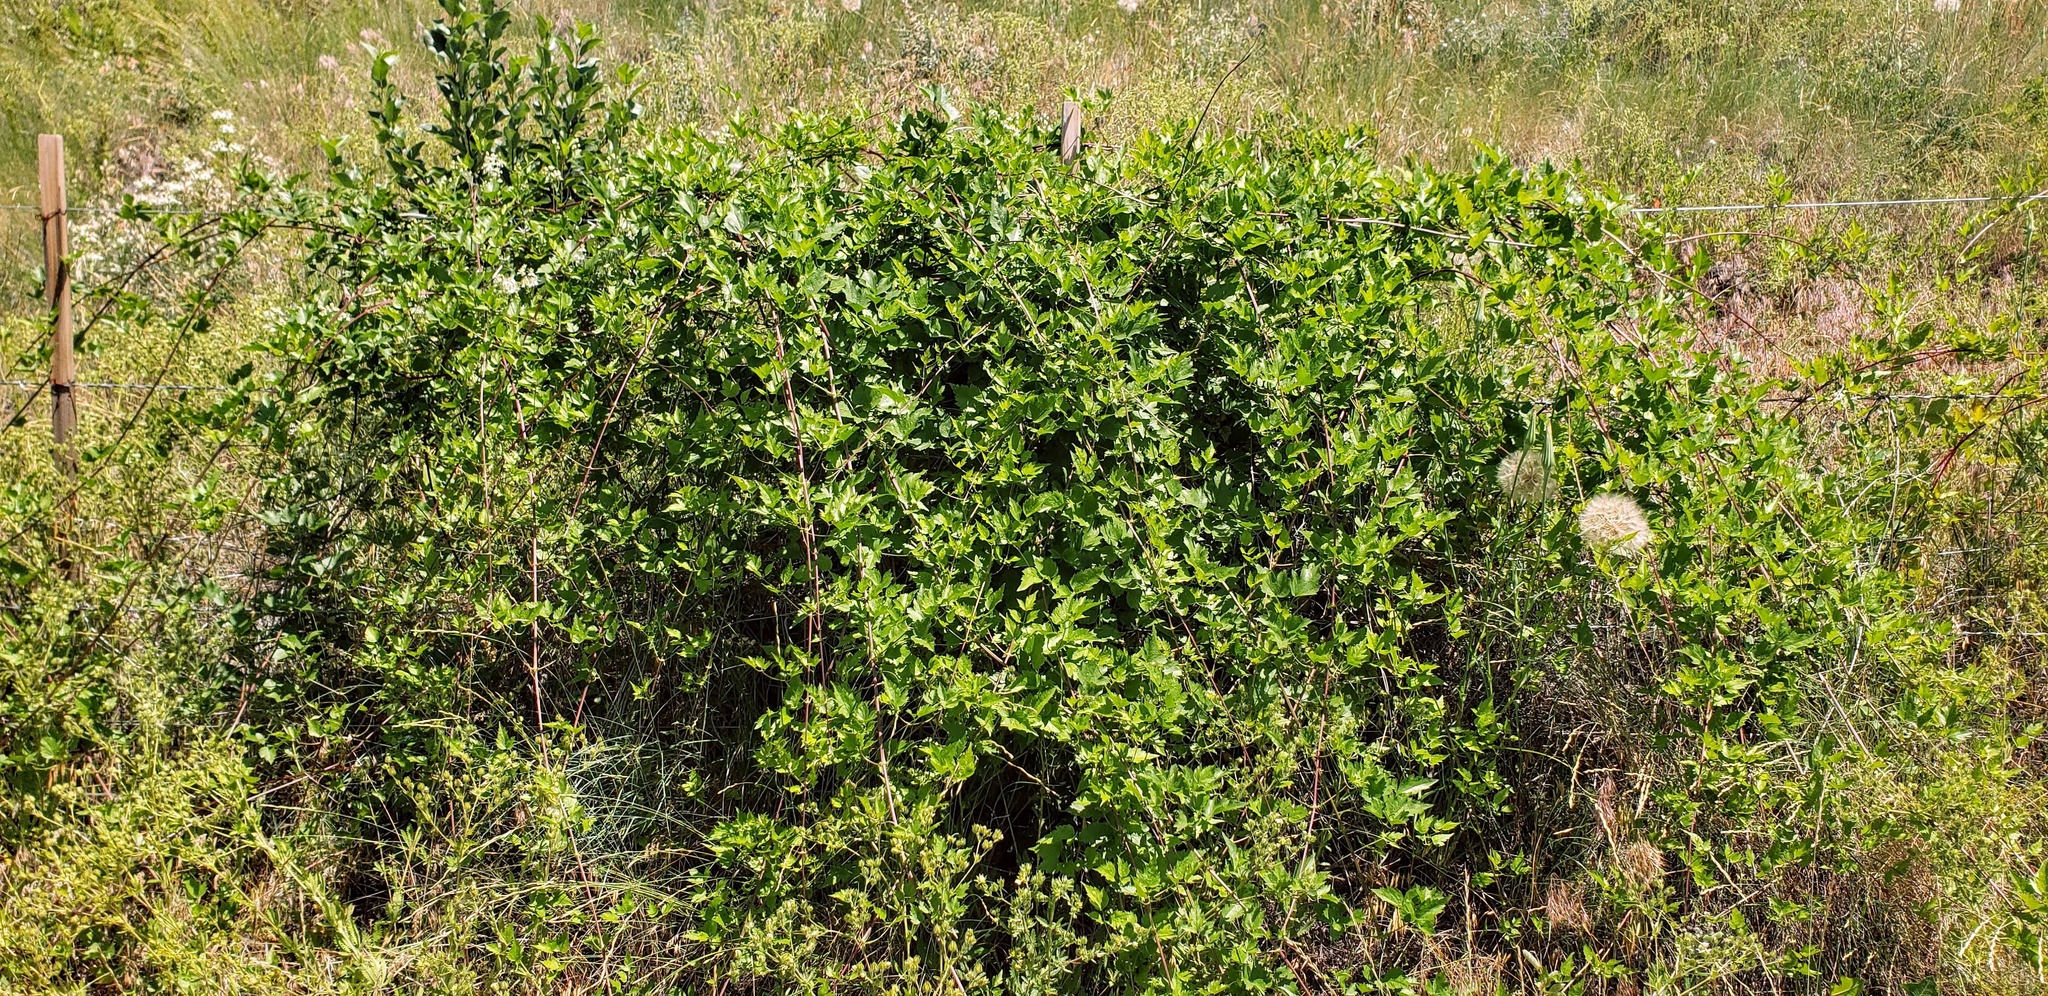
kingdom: Plantae
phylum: Tracheophyta
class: Magnoliopsida
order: Ranunculales
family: Ranunculaceae
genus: Clematis
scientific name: Clematis ligusticifolia
